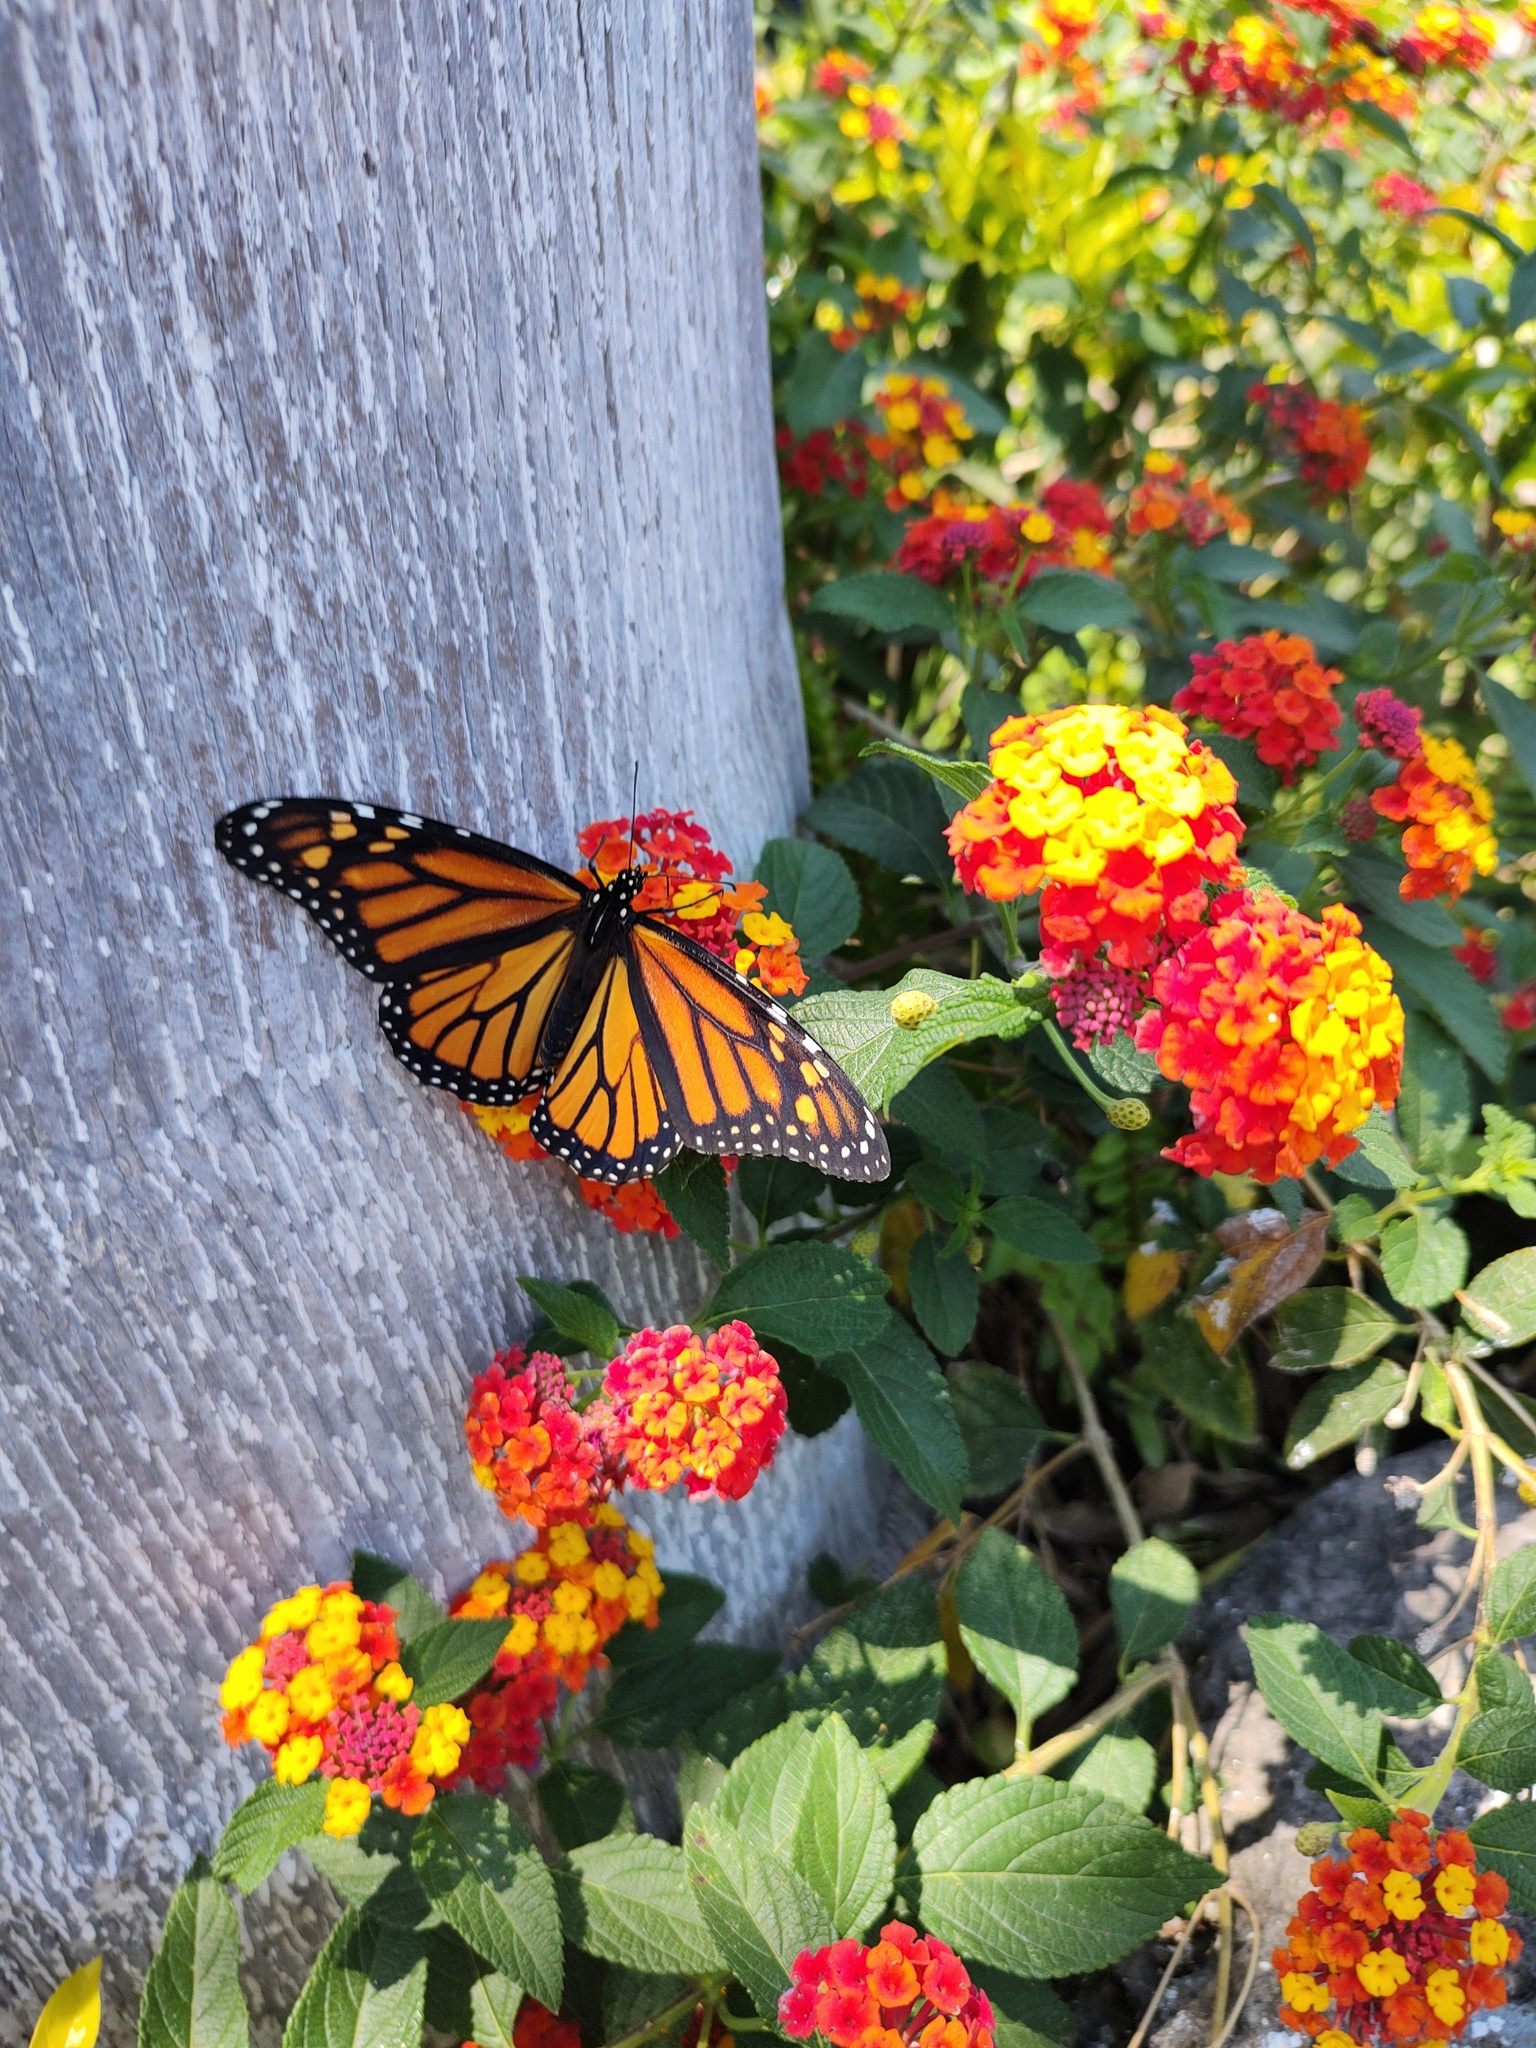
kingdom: Animalia
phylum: Arthropoda
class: Insecta
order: Lepidoptera
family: Nymphalidae
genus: Danaus
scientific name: Danaus plexippus
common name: Monarch
